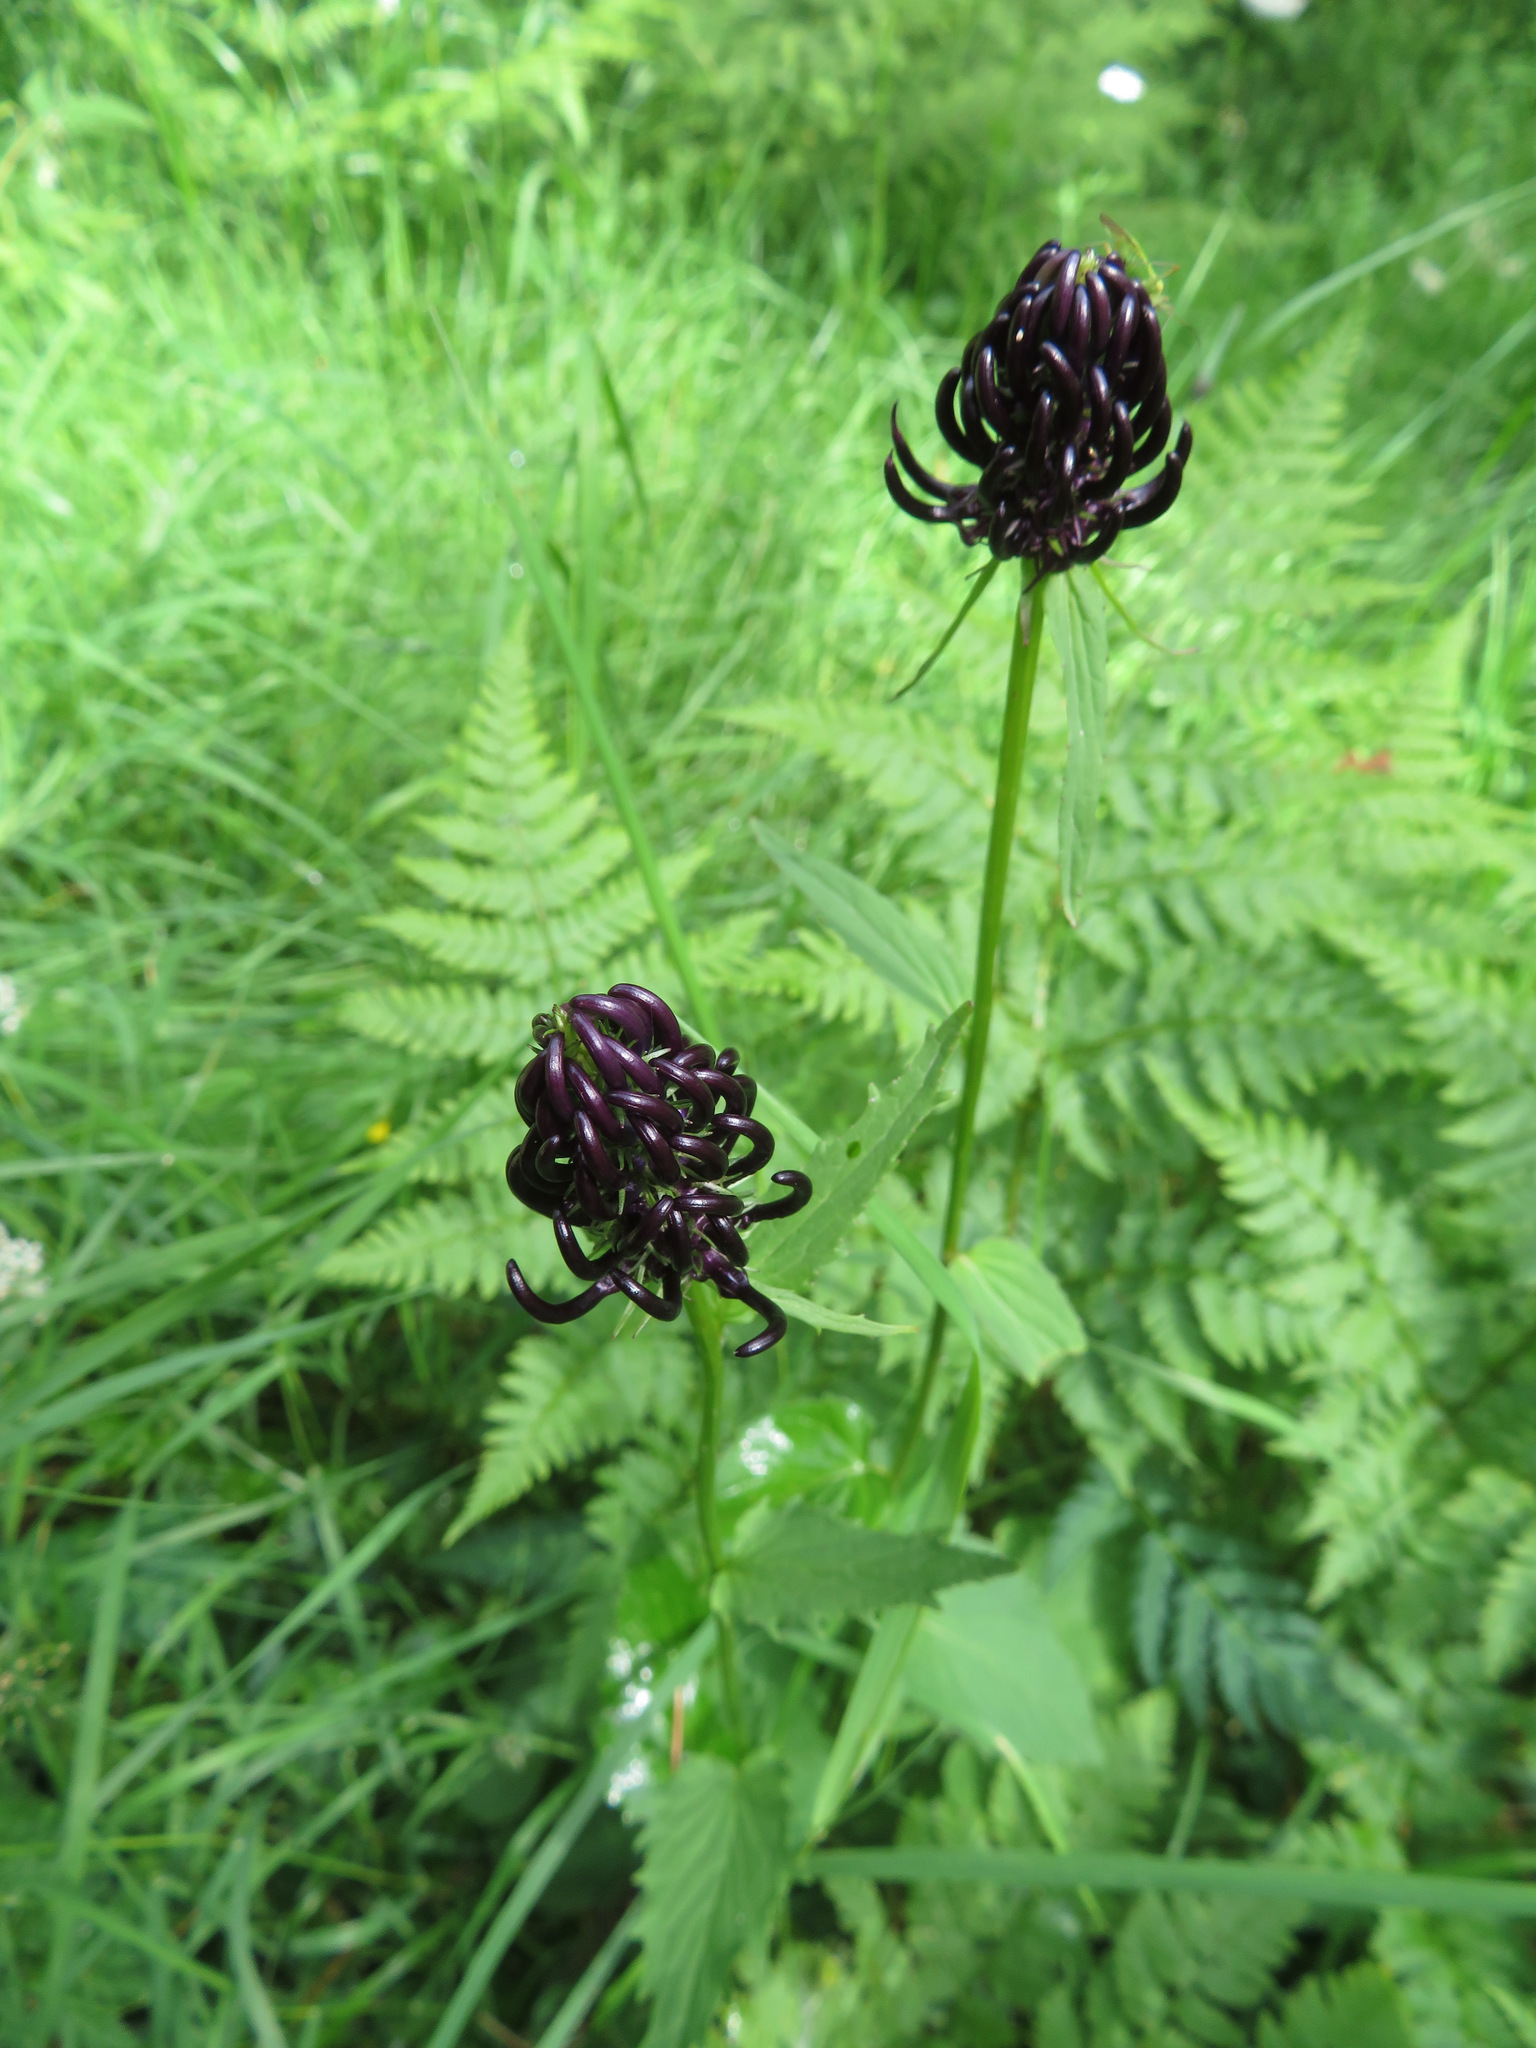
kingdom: Plantae
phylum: Tracheophyta
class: Magnoliopsida
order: Asterales
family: Campanulaceae
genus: Phyteuma
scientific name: Phyteuma ovatum
